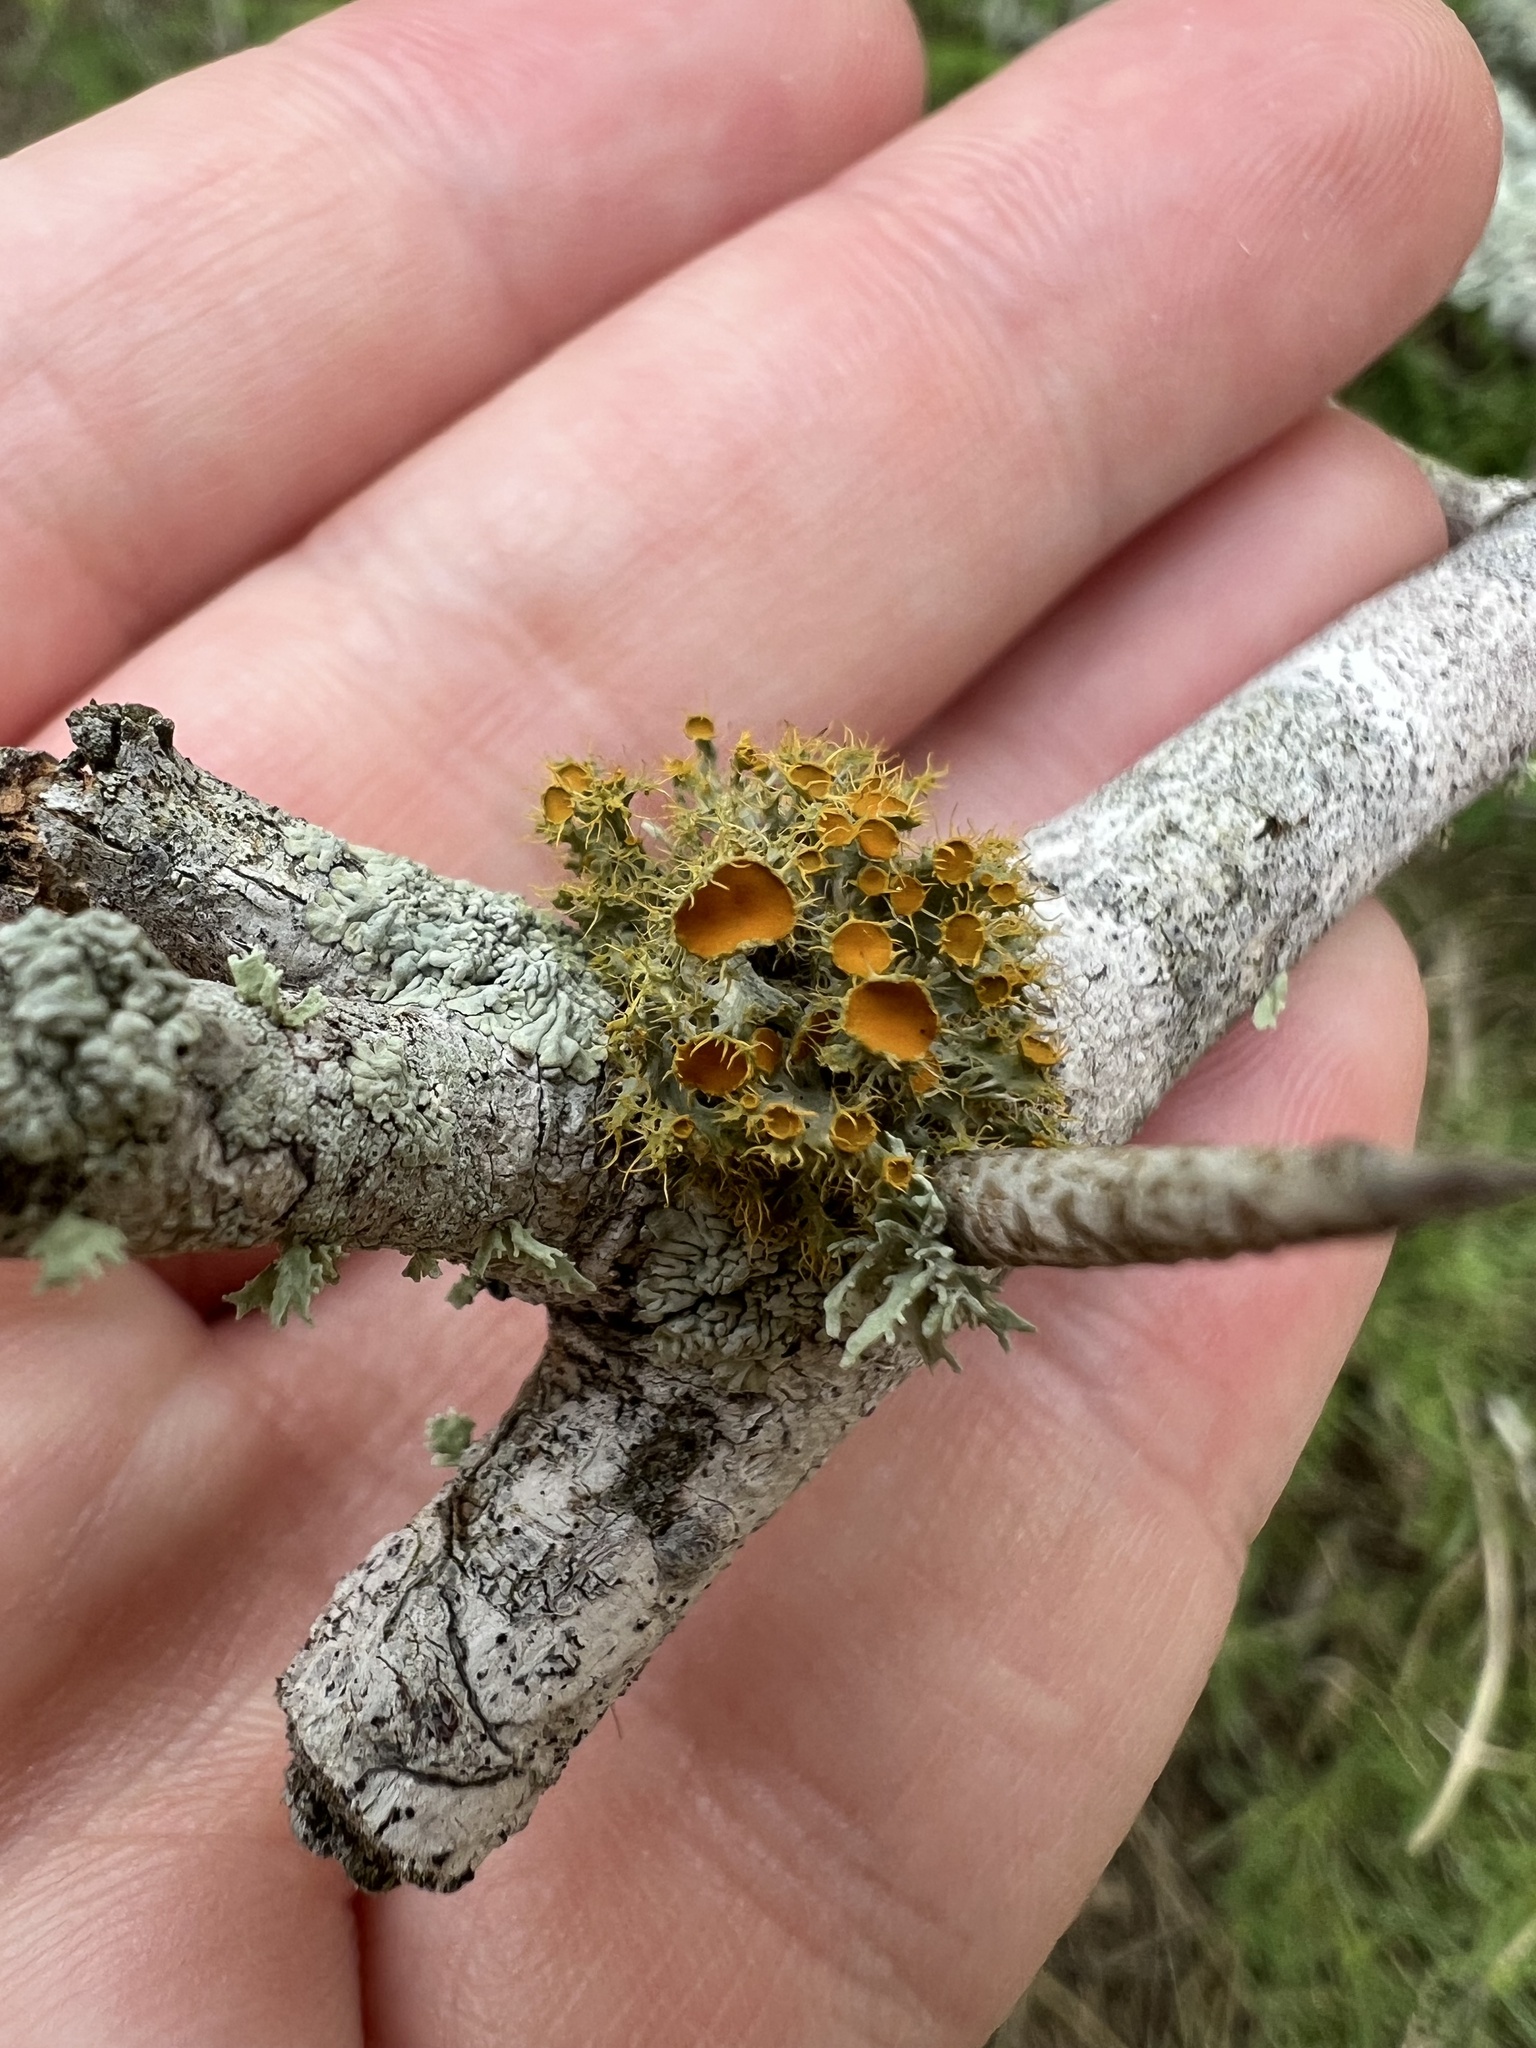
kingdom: Fungi
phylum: Ascomycota
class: Lecanoromycetes
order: Teloschistales
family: Teloschistaceae
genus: Niorma
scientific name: Niorma chrysophthalma
